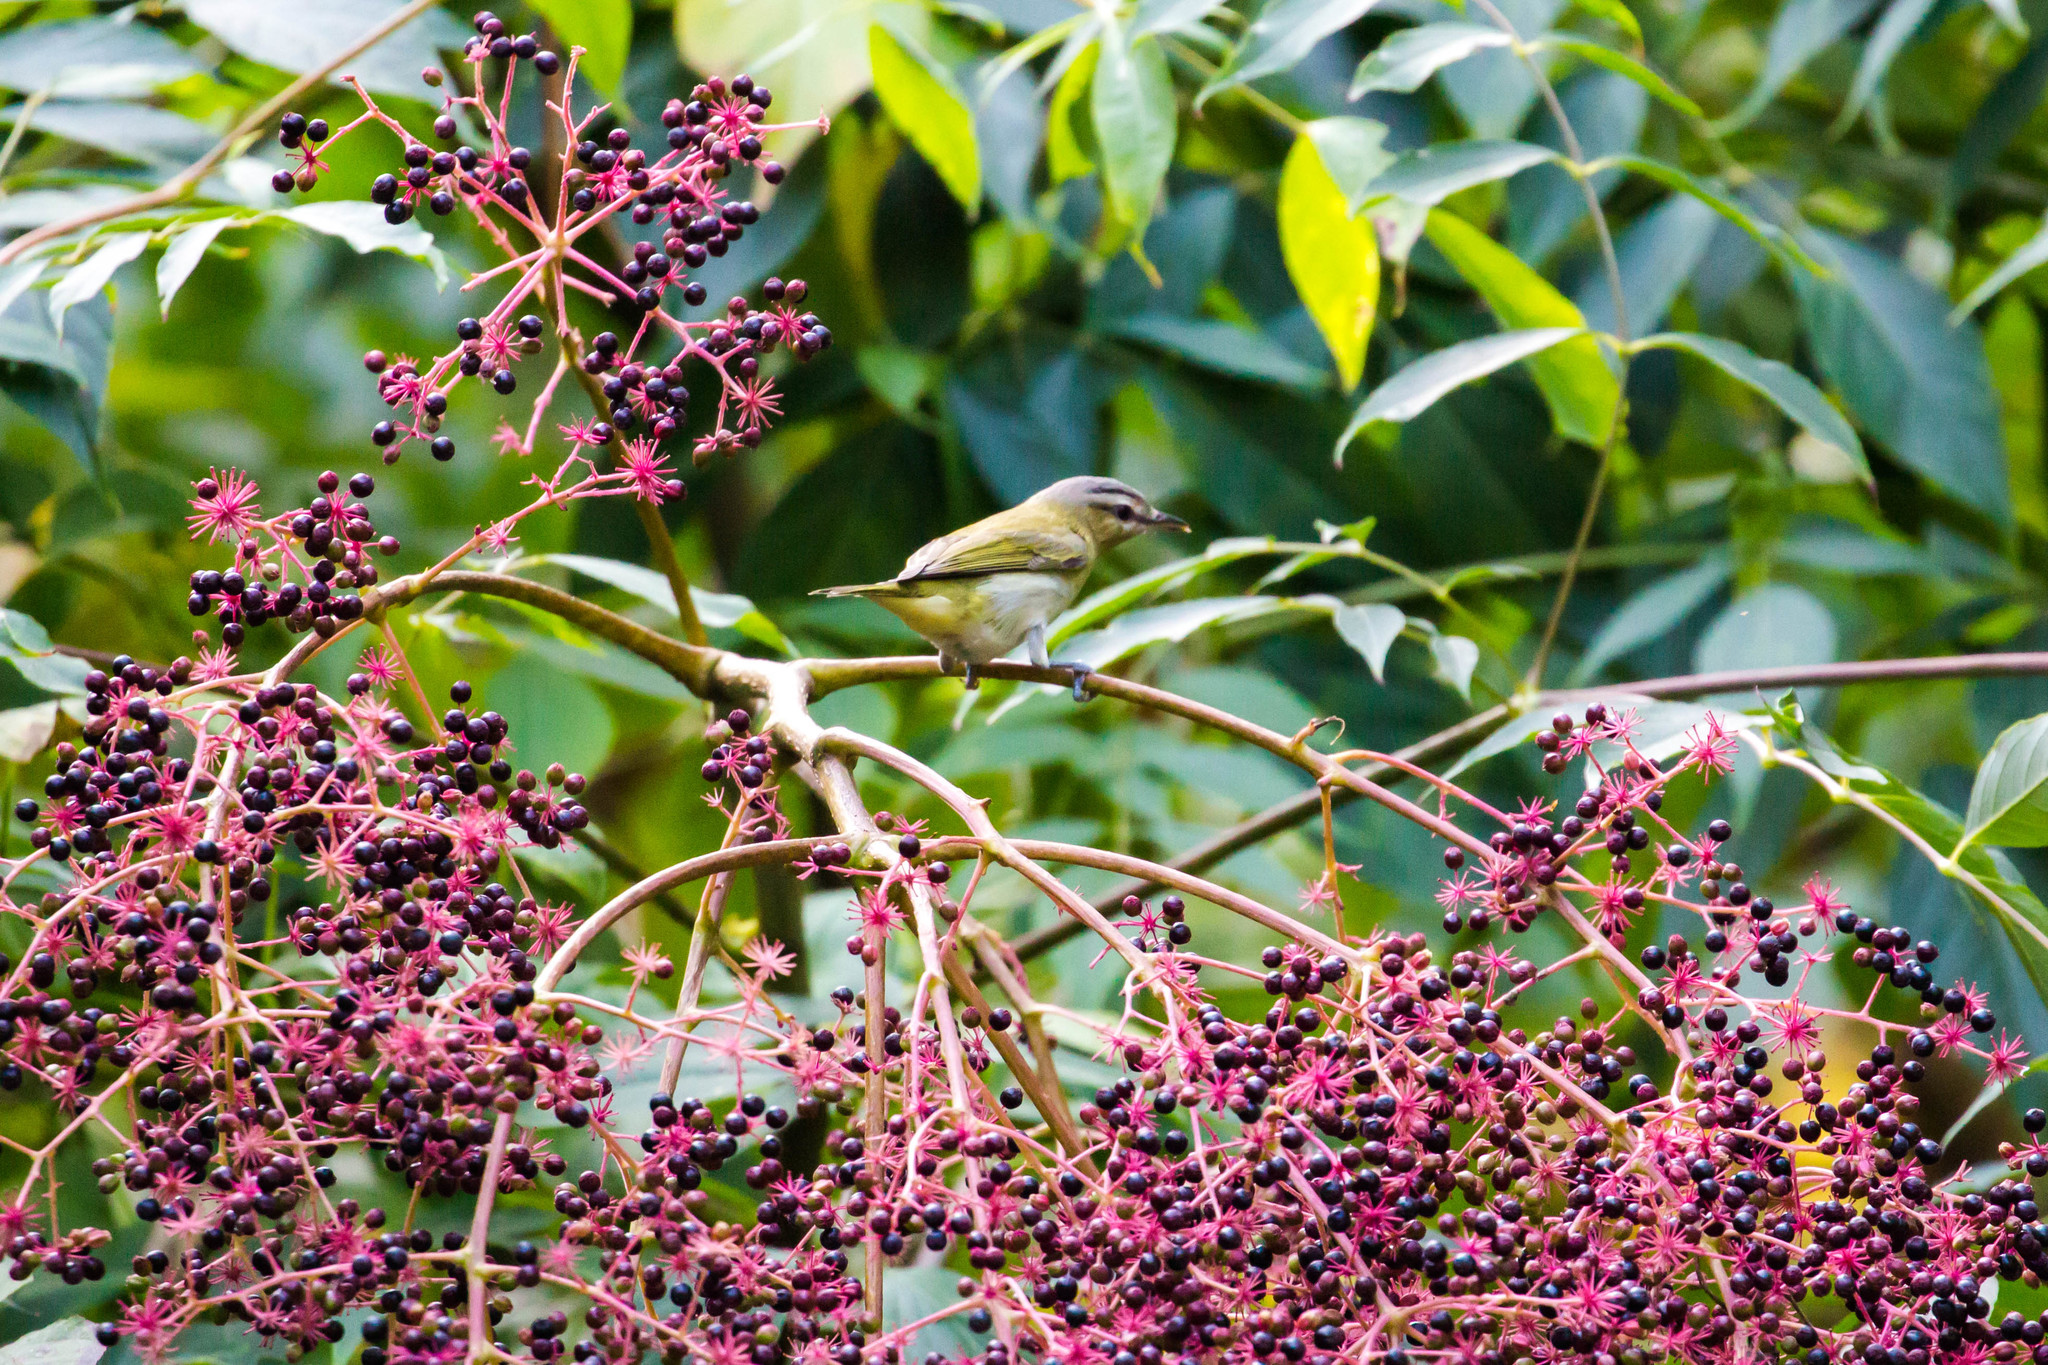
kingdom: Animalia
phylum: Chordata
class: Aves
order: Passeriformes
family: Vireonidae
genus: Vireo
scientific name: Vireo olivaceus
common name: Red-eyed vireo
